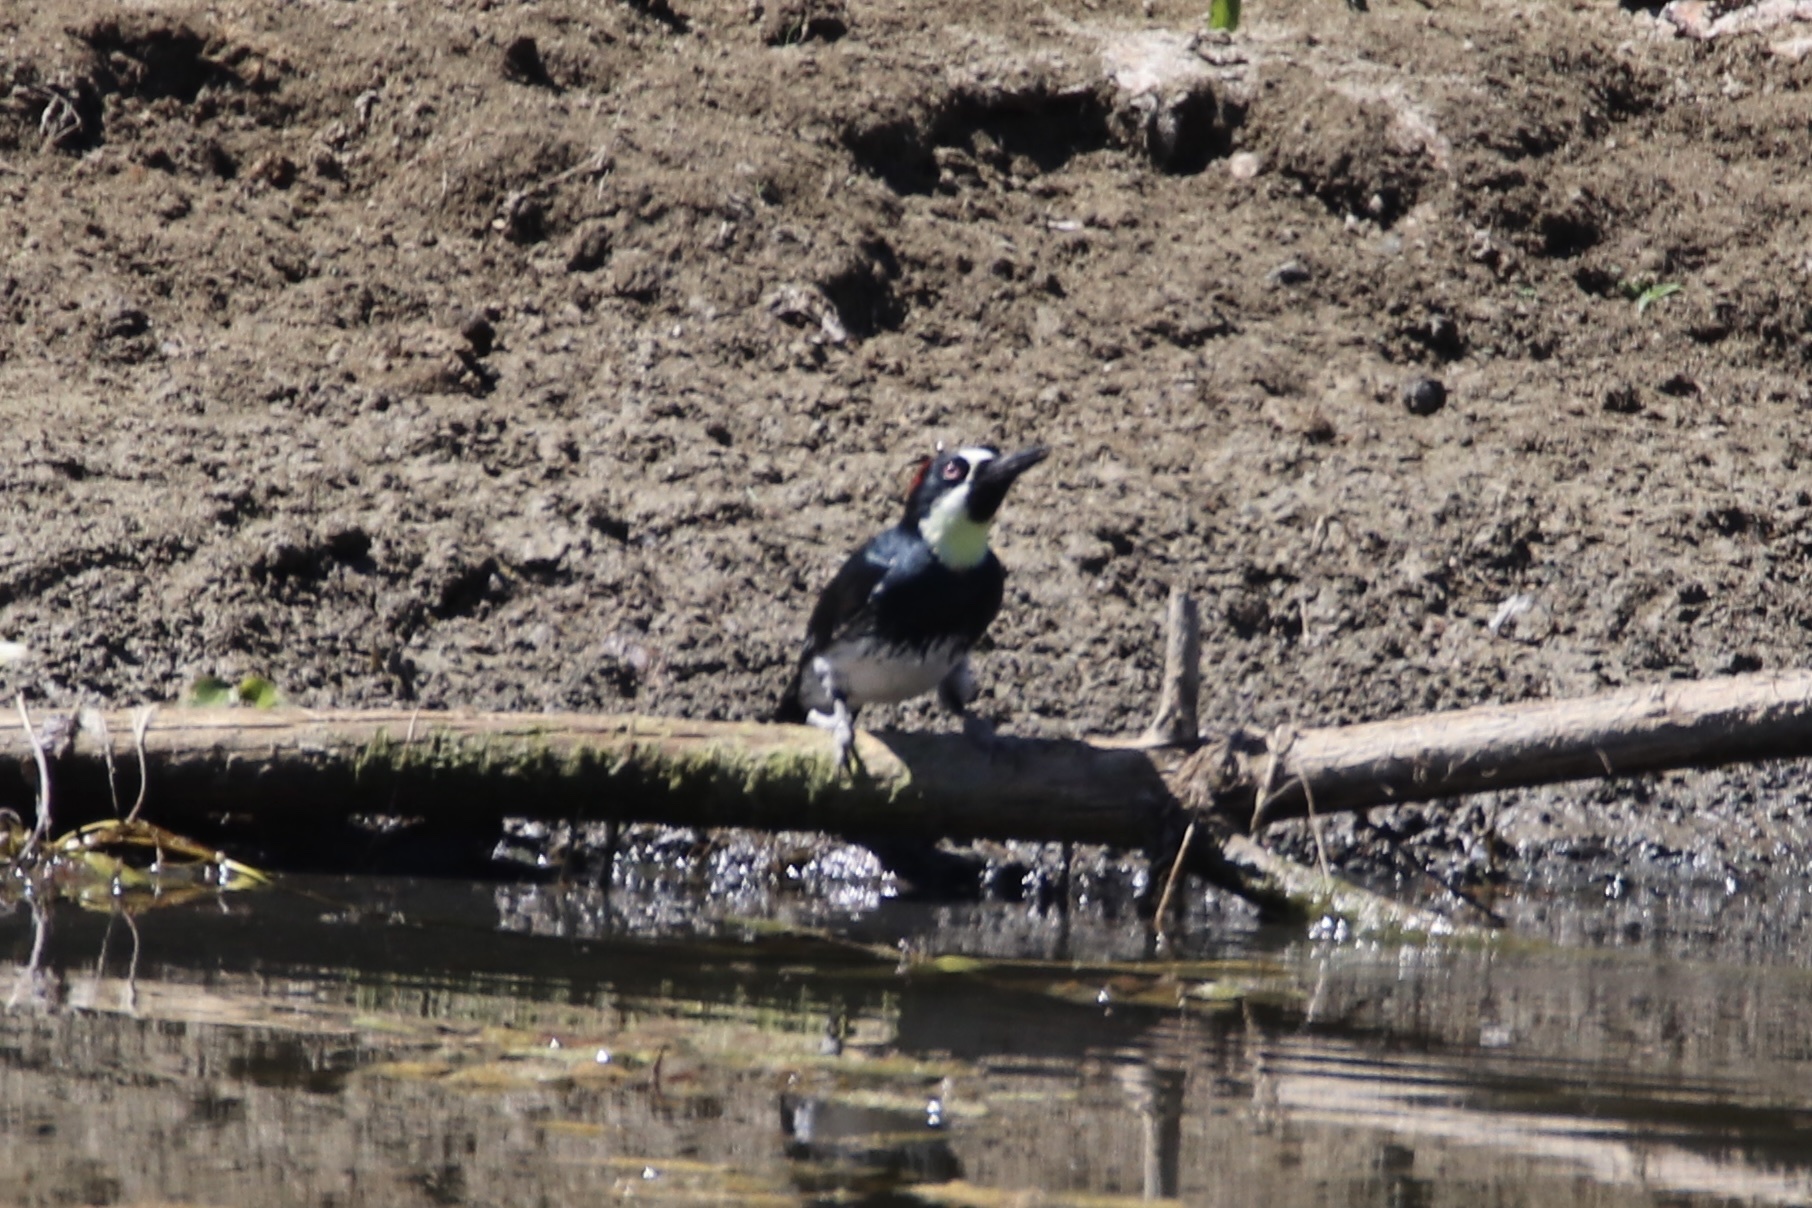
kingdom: Animalia
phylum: Chordata
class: Aves
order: Piciformes
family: Picidae
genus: Melanerpes
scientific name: Melanerpes formicivorus
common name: Acorn woodpecker
